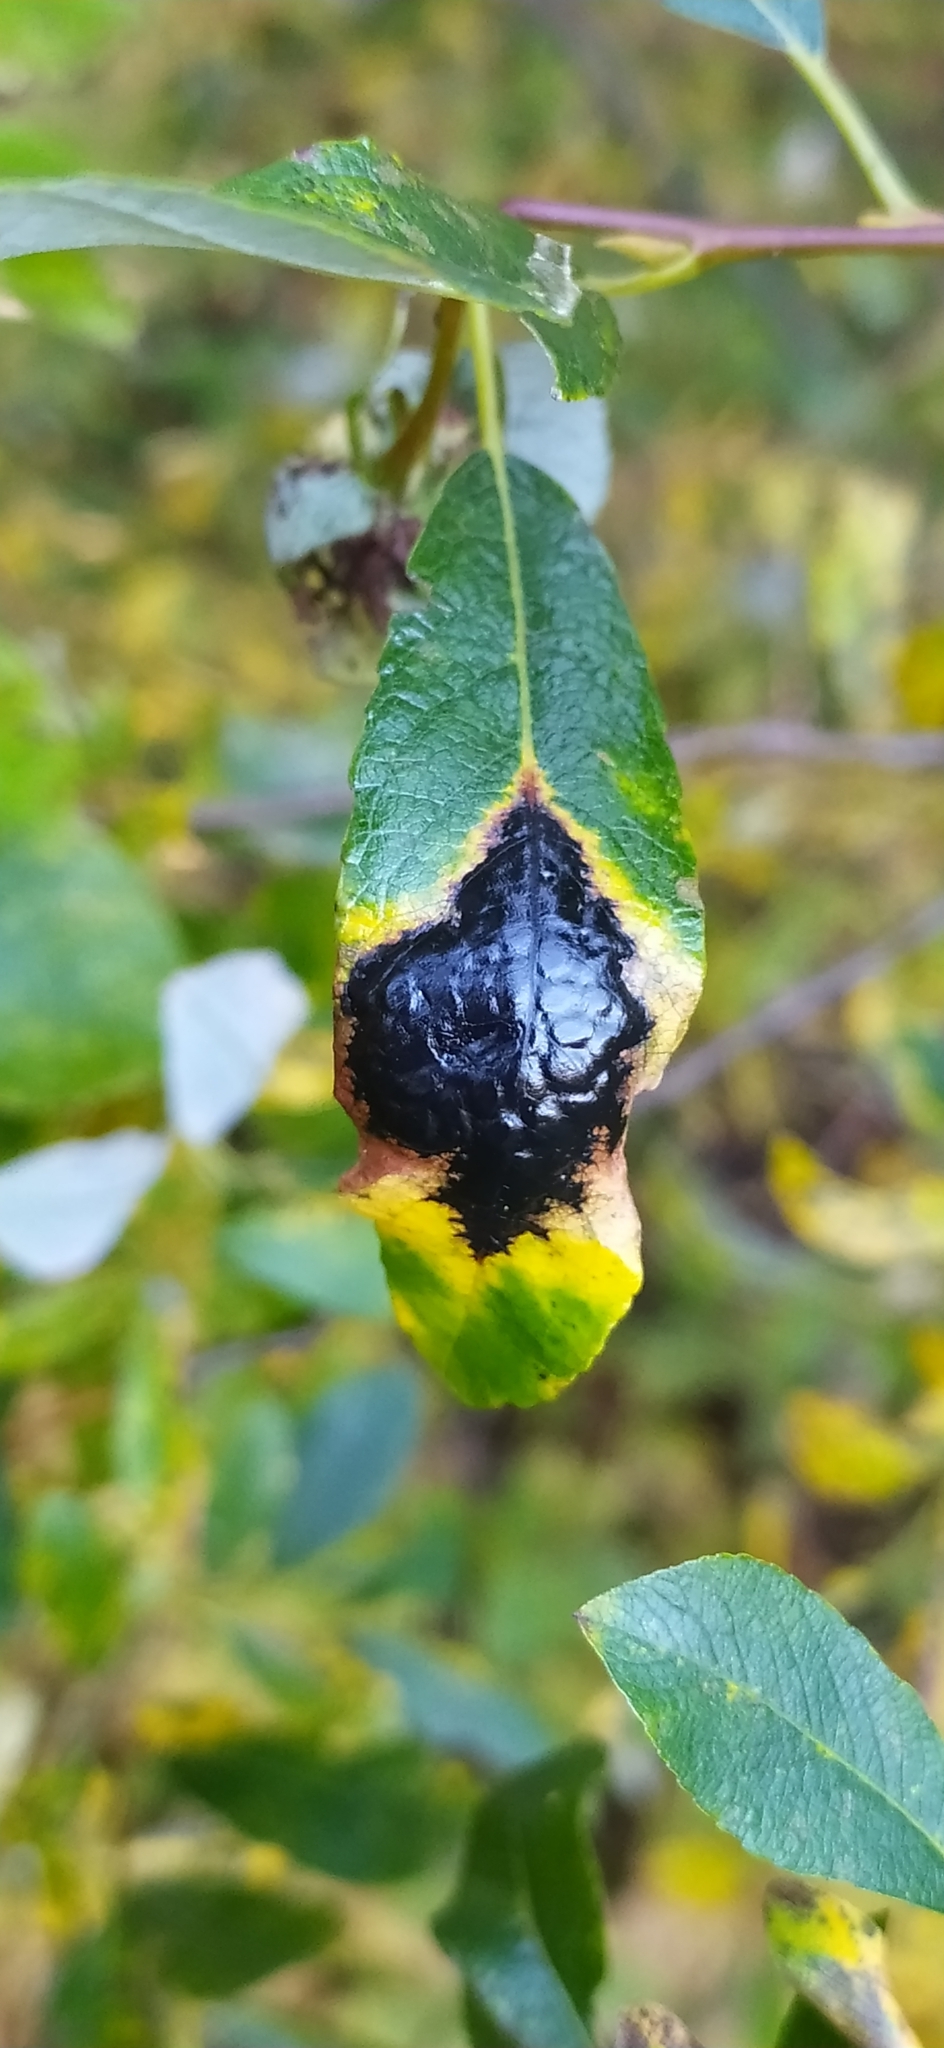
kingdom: Fungi
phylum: Ascomycota
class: Leotiomycetes
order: Rhytismatales
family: Rhytismataceae
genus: Rhytisma
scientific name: Rhytisma salicinum
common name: Willow tarspot
